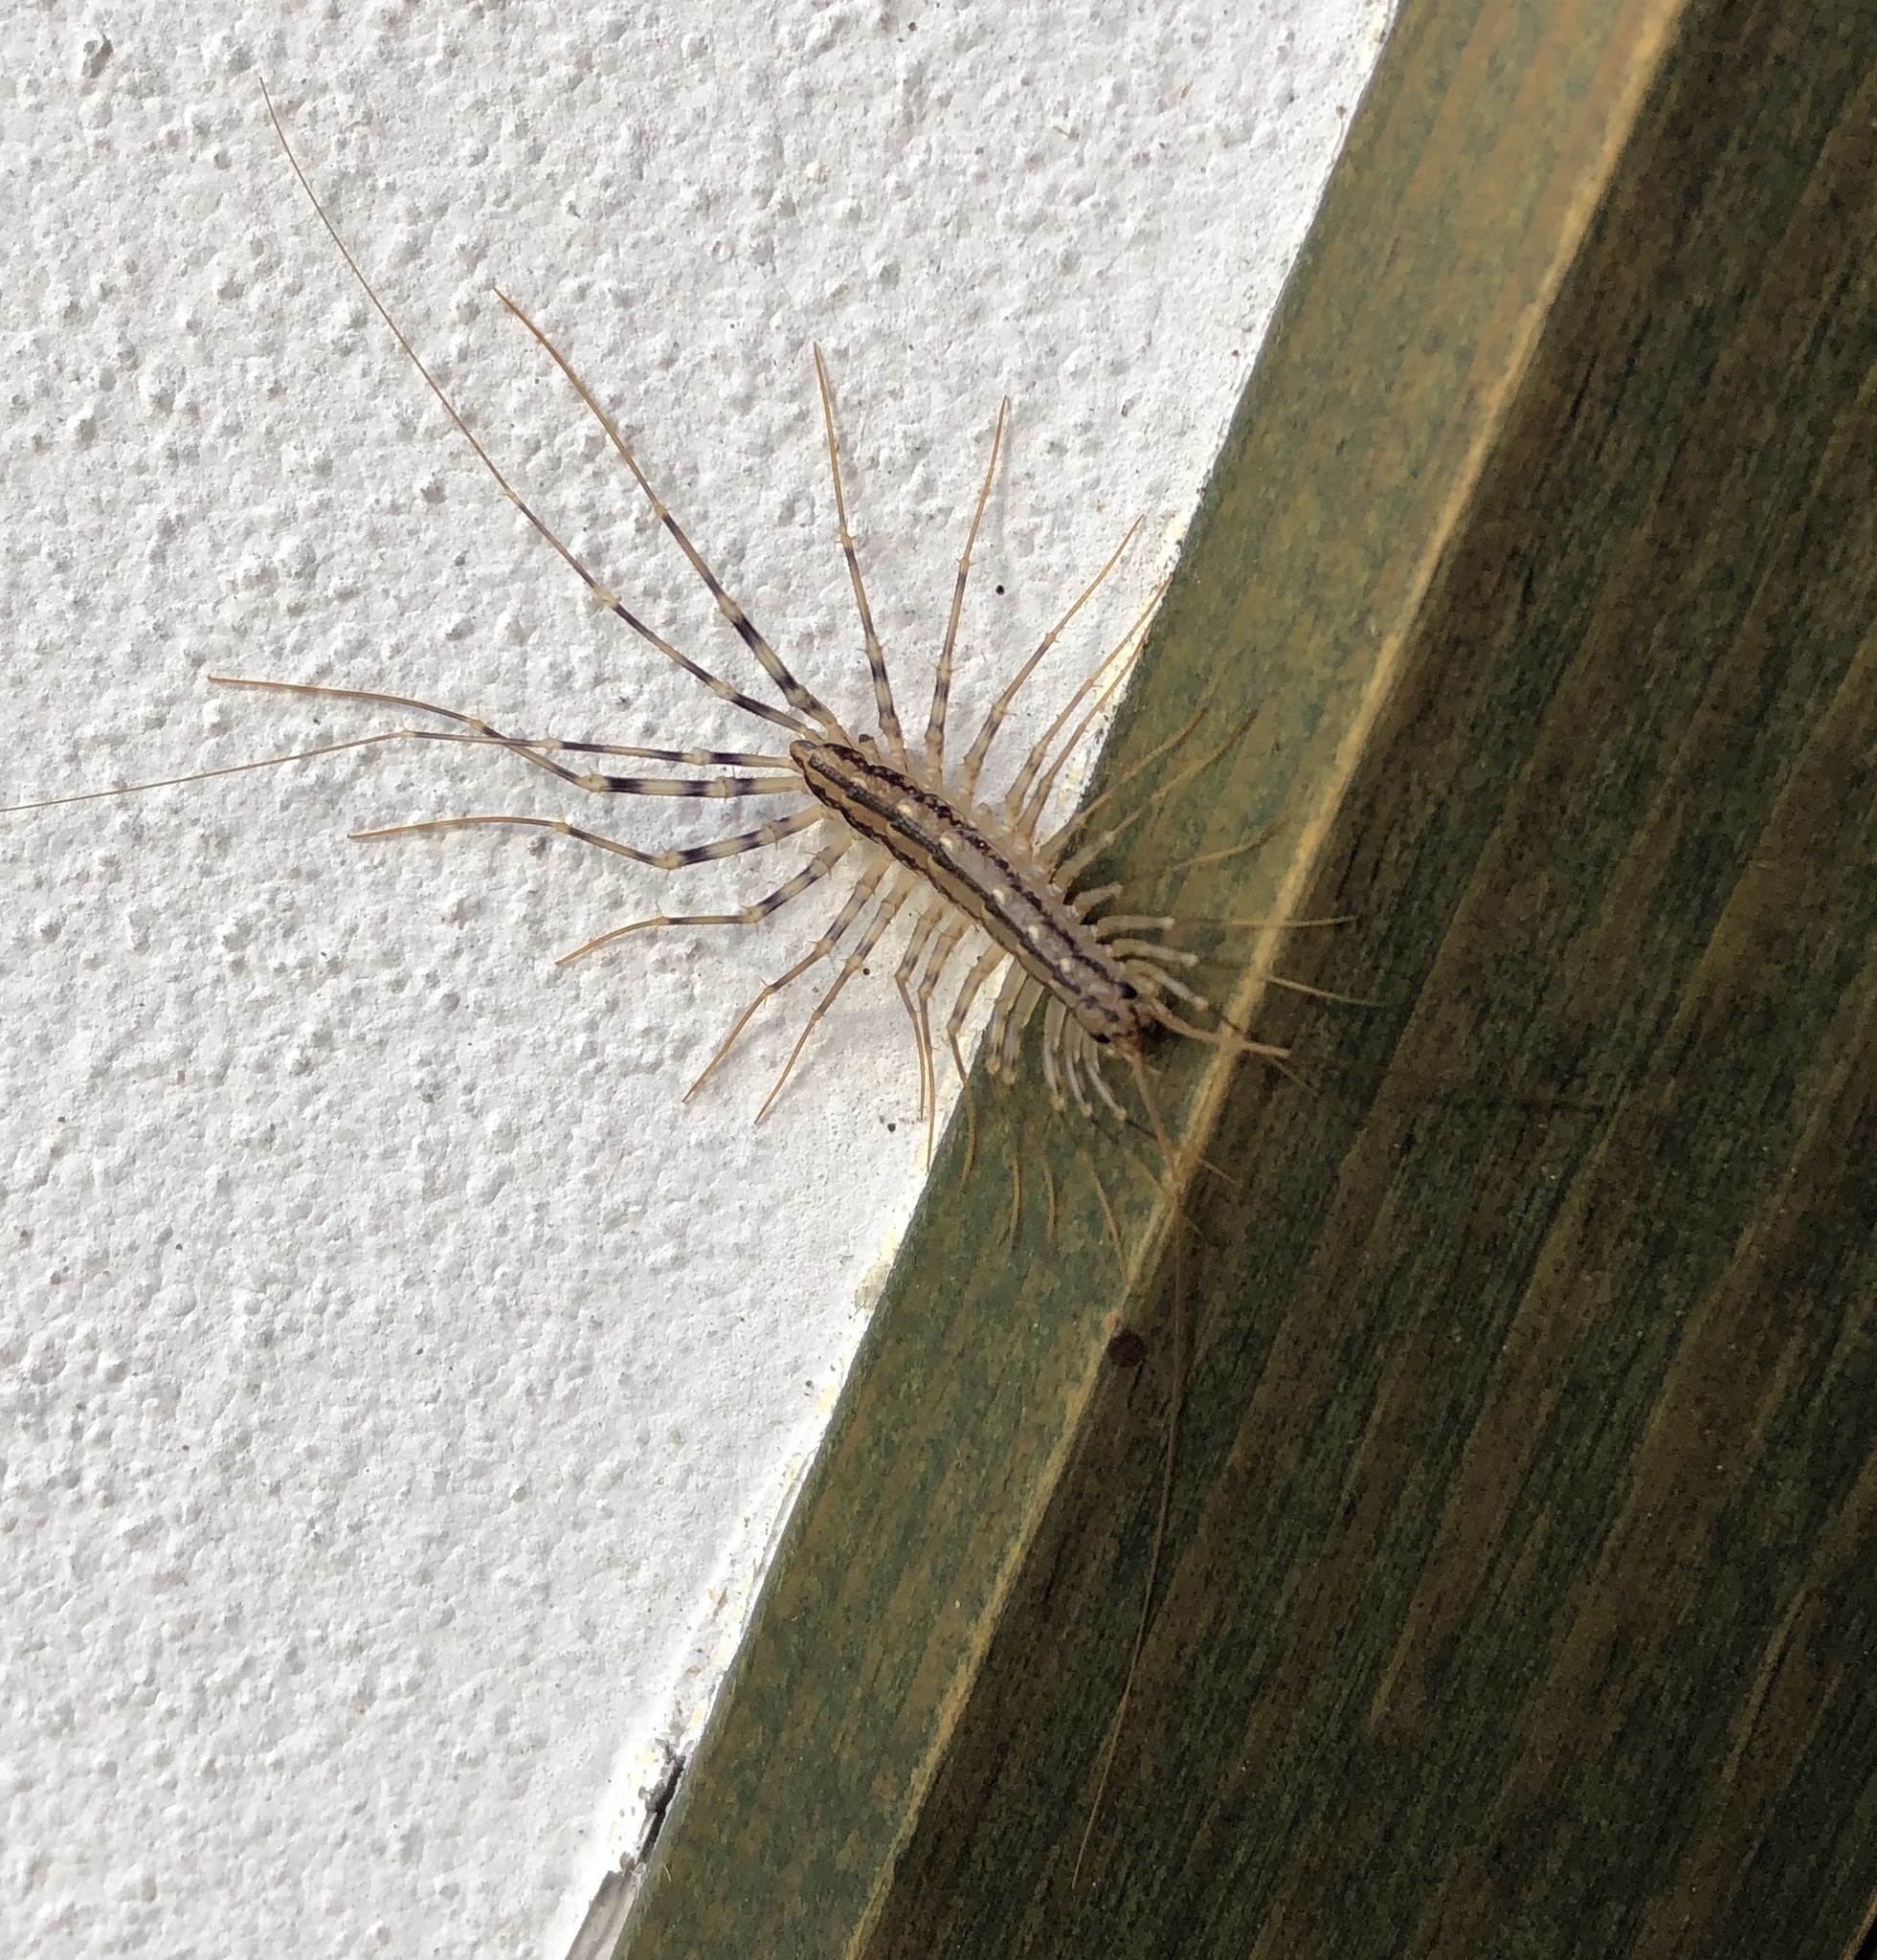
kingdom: Animalia
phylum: Arthropoda
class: Chilopoda
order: Scutigeromorpha
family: Scutigeridae
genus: Scutigera
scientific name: Scutigera coleoptrata
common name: House centipede
